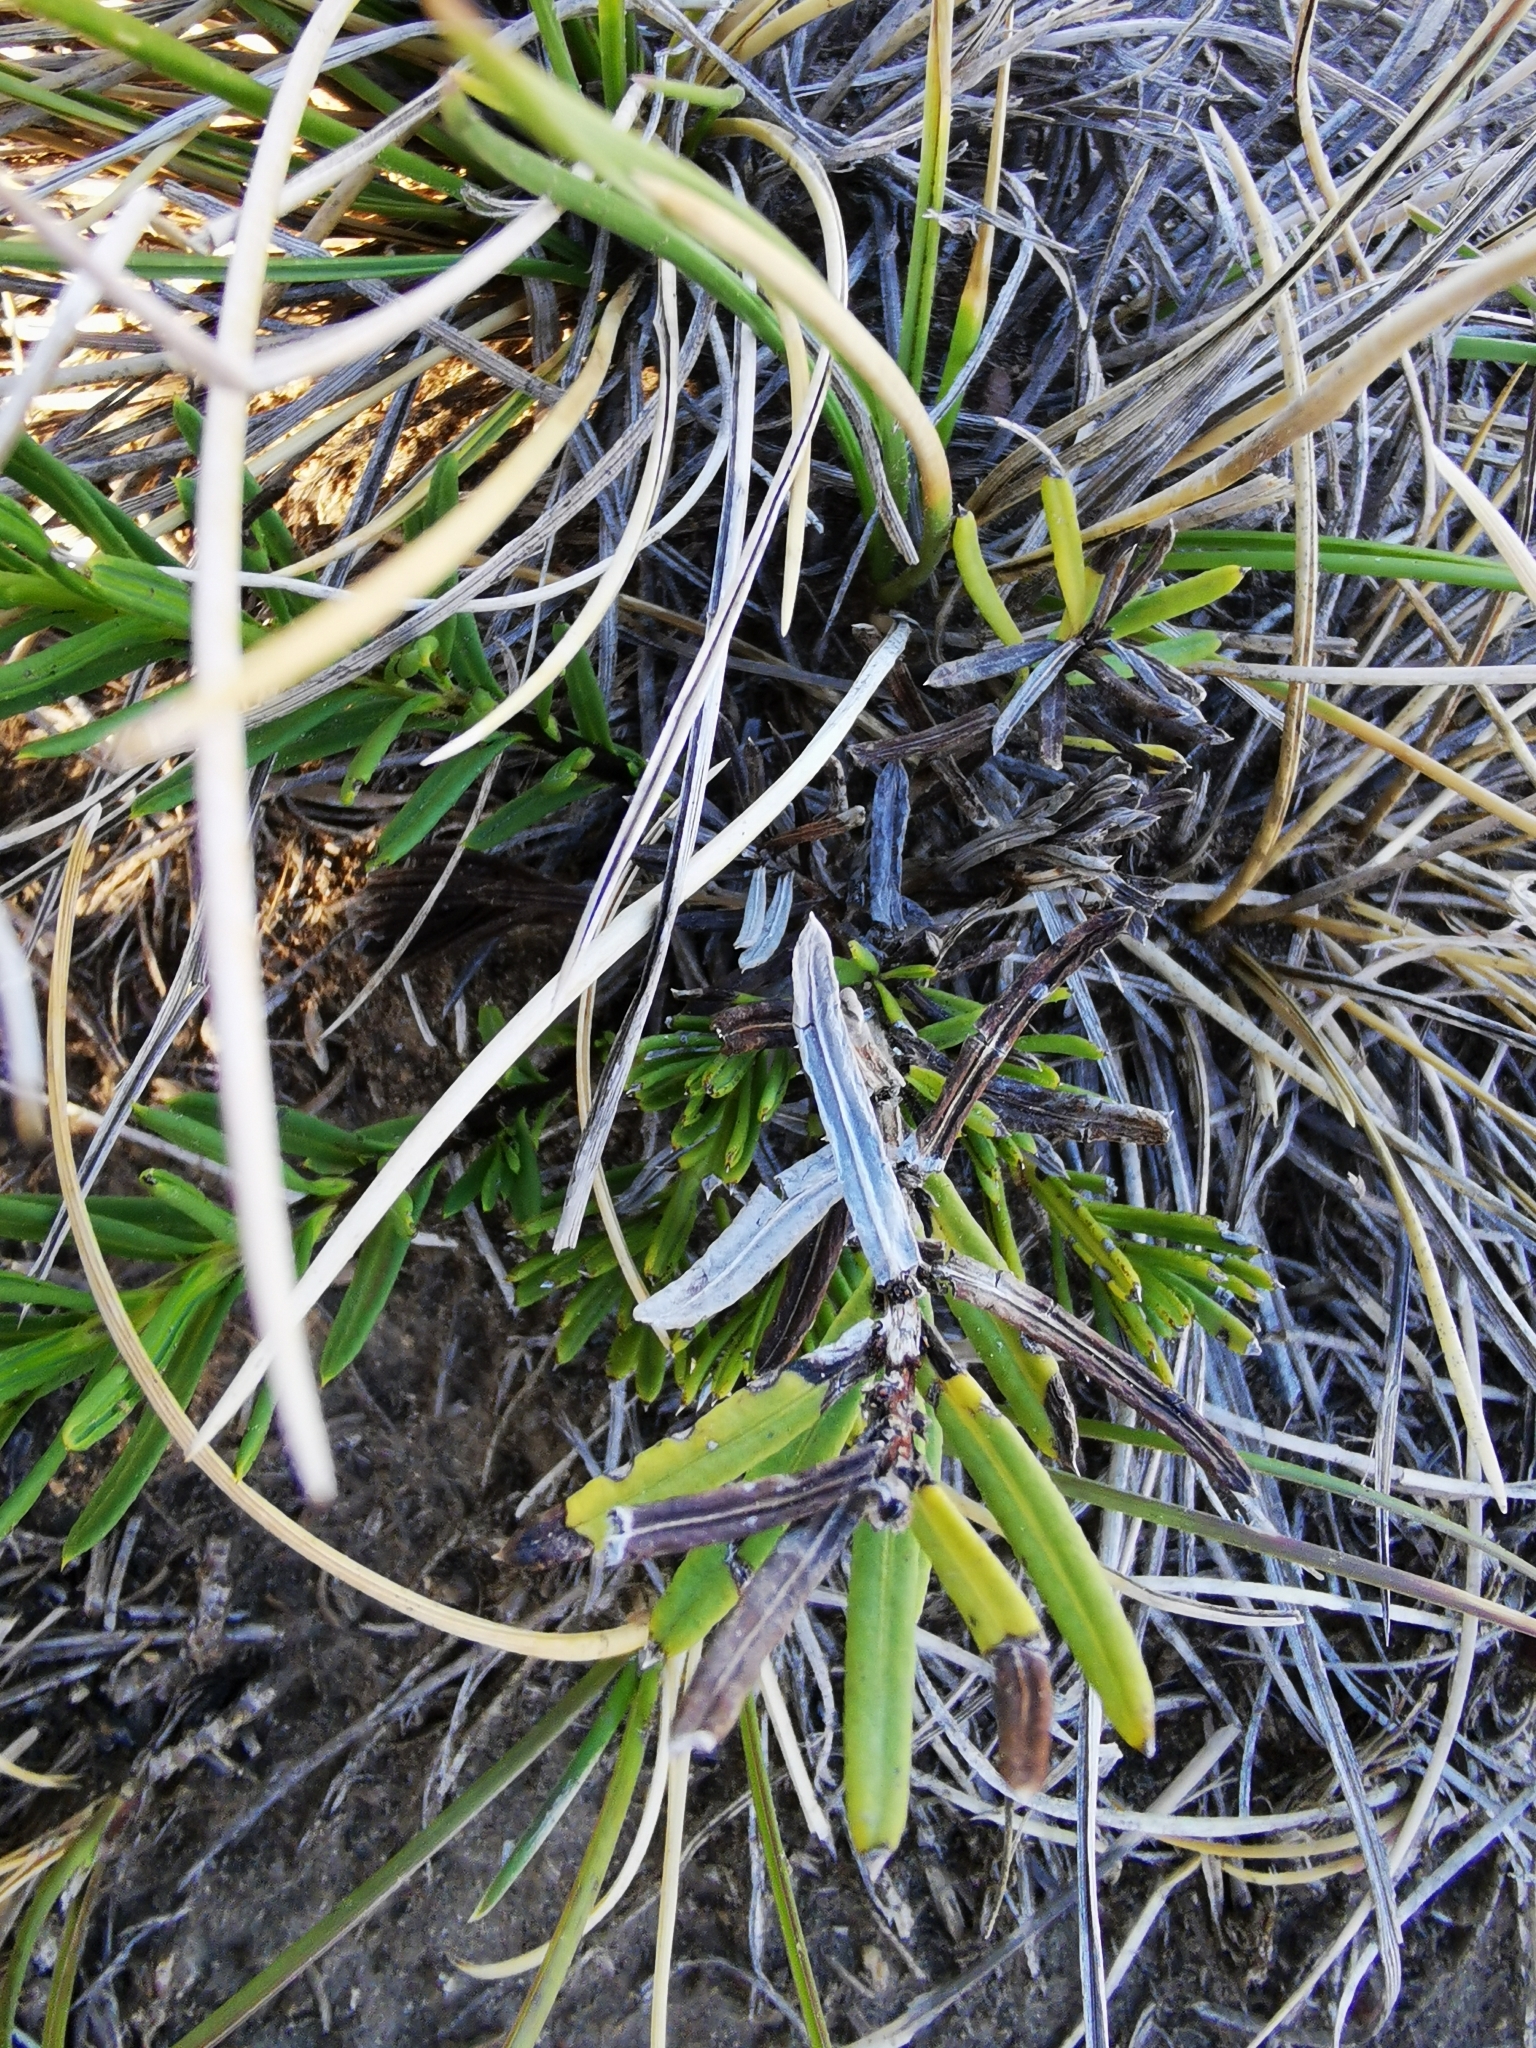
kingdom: Plantae
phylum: Tracheophyta
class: Magnoliopsida
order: Asterales
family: Asteraceae
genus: Mutisia
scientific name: Mutisia linearifolia
